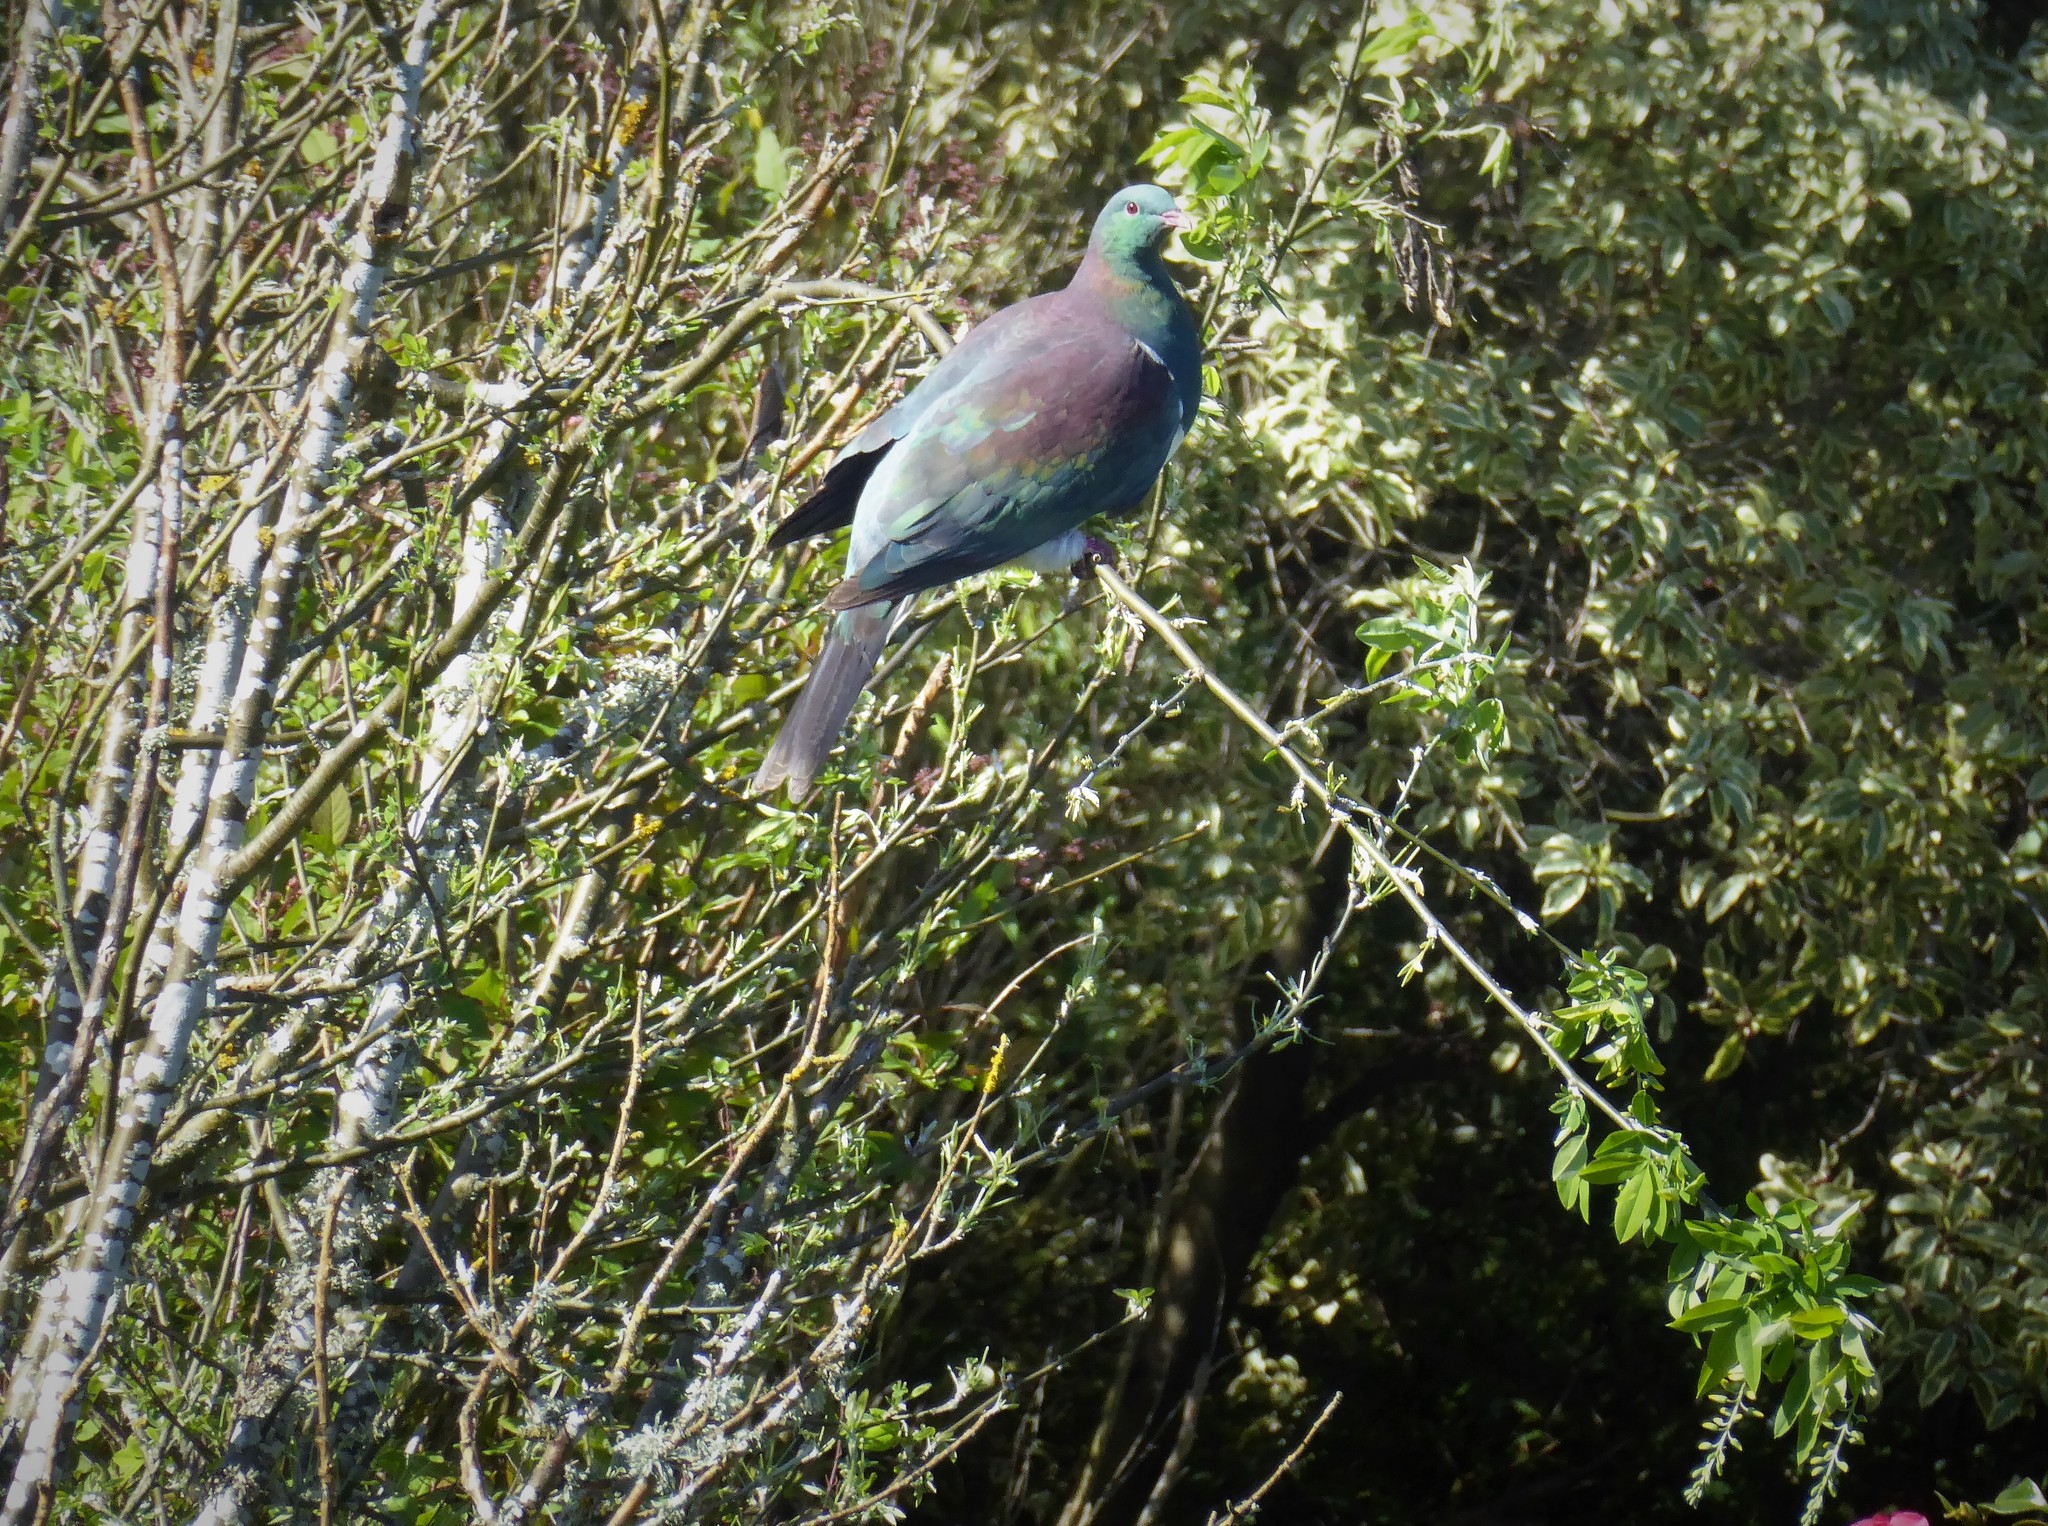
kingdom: Animalia
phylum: Chordata
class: Aves
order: Columbiformes
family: Columbidae
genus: Hemiphaga
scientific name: Hemiphaga novaeseelandiae
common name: New zealand pigeon
